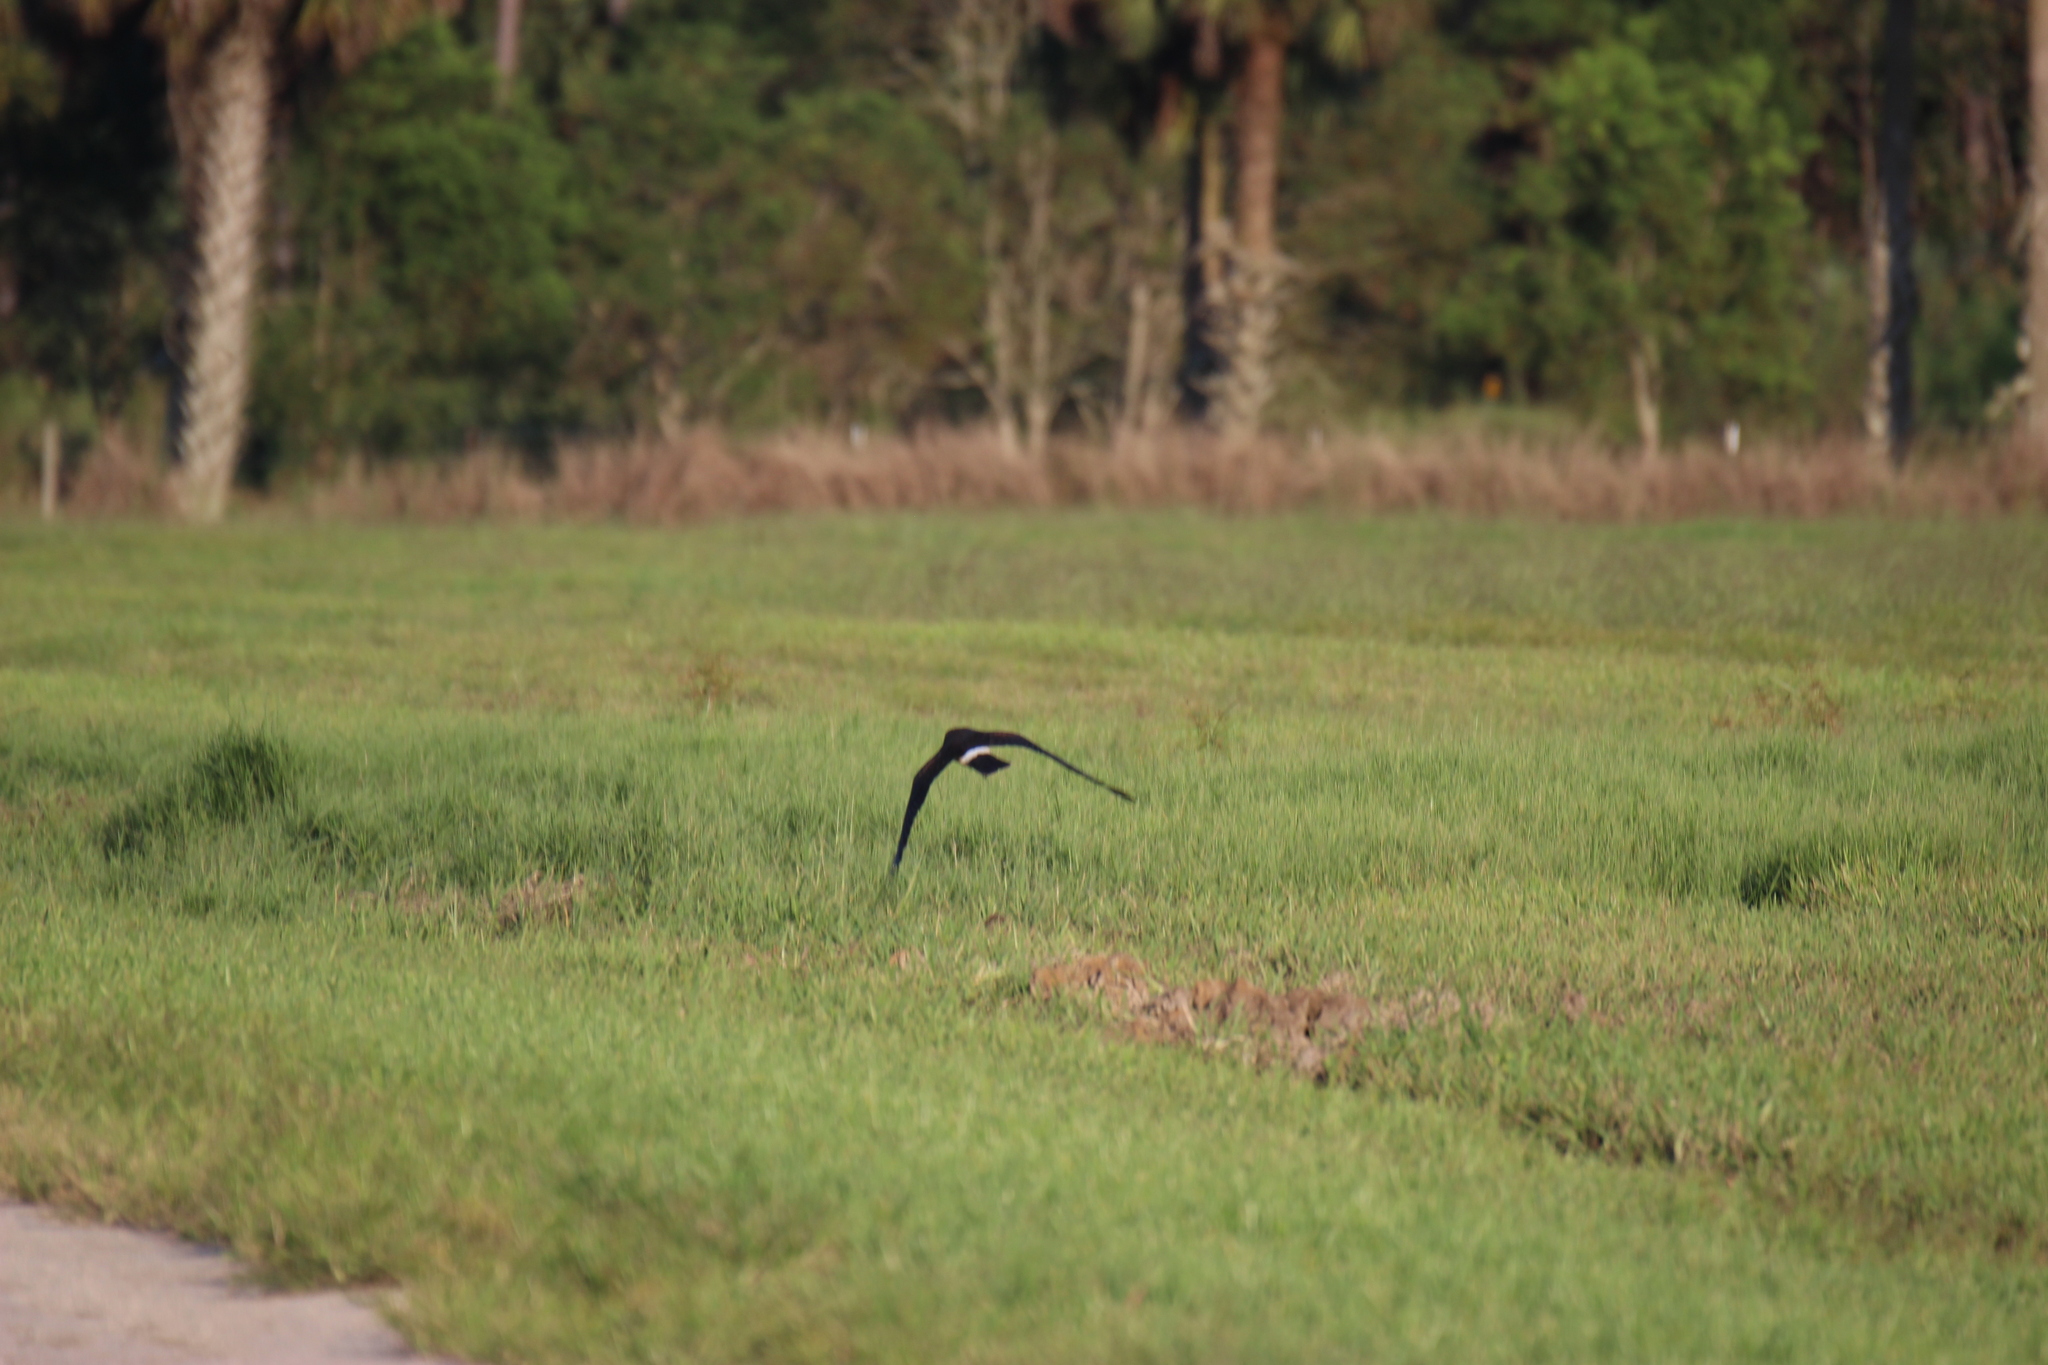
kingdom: Animalia
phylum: Chordata
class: Aves
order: Accipitriformes
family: Accipitridae
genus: Circus
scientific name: Circus cyaneus
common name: Hen harrier
